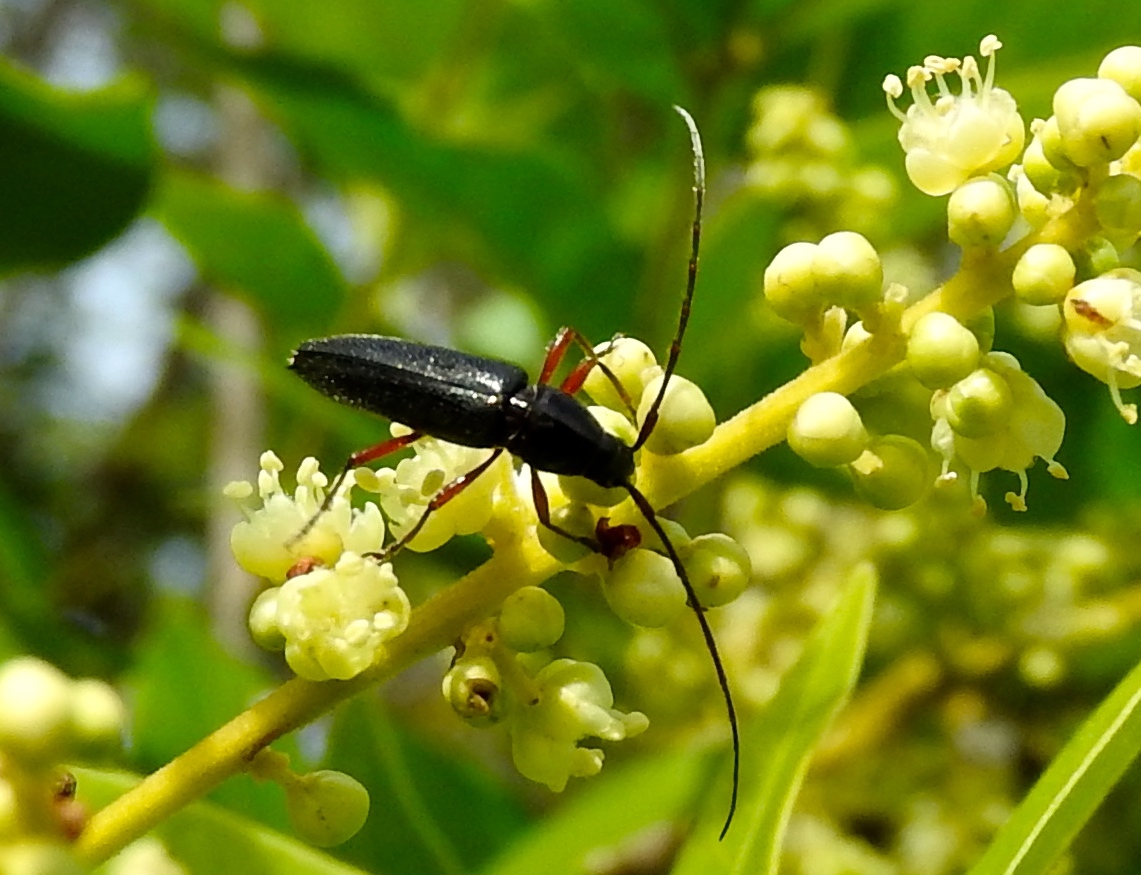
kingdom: Animalia
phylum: Arthropoda
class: Insecta
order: Coleoptera
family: Cerambycidae
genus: Stenosphenus
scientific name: Stenosphenus
